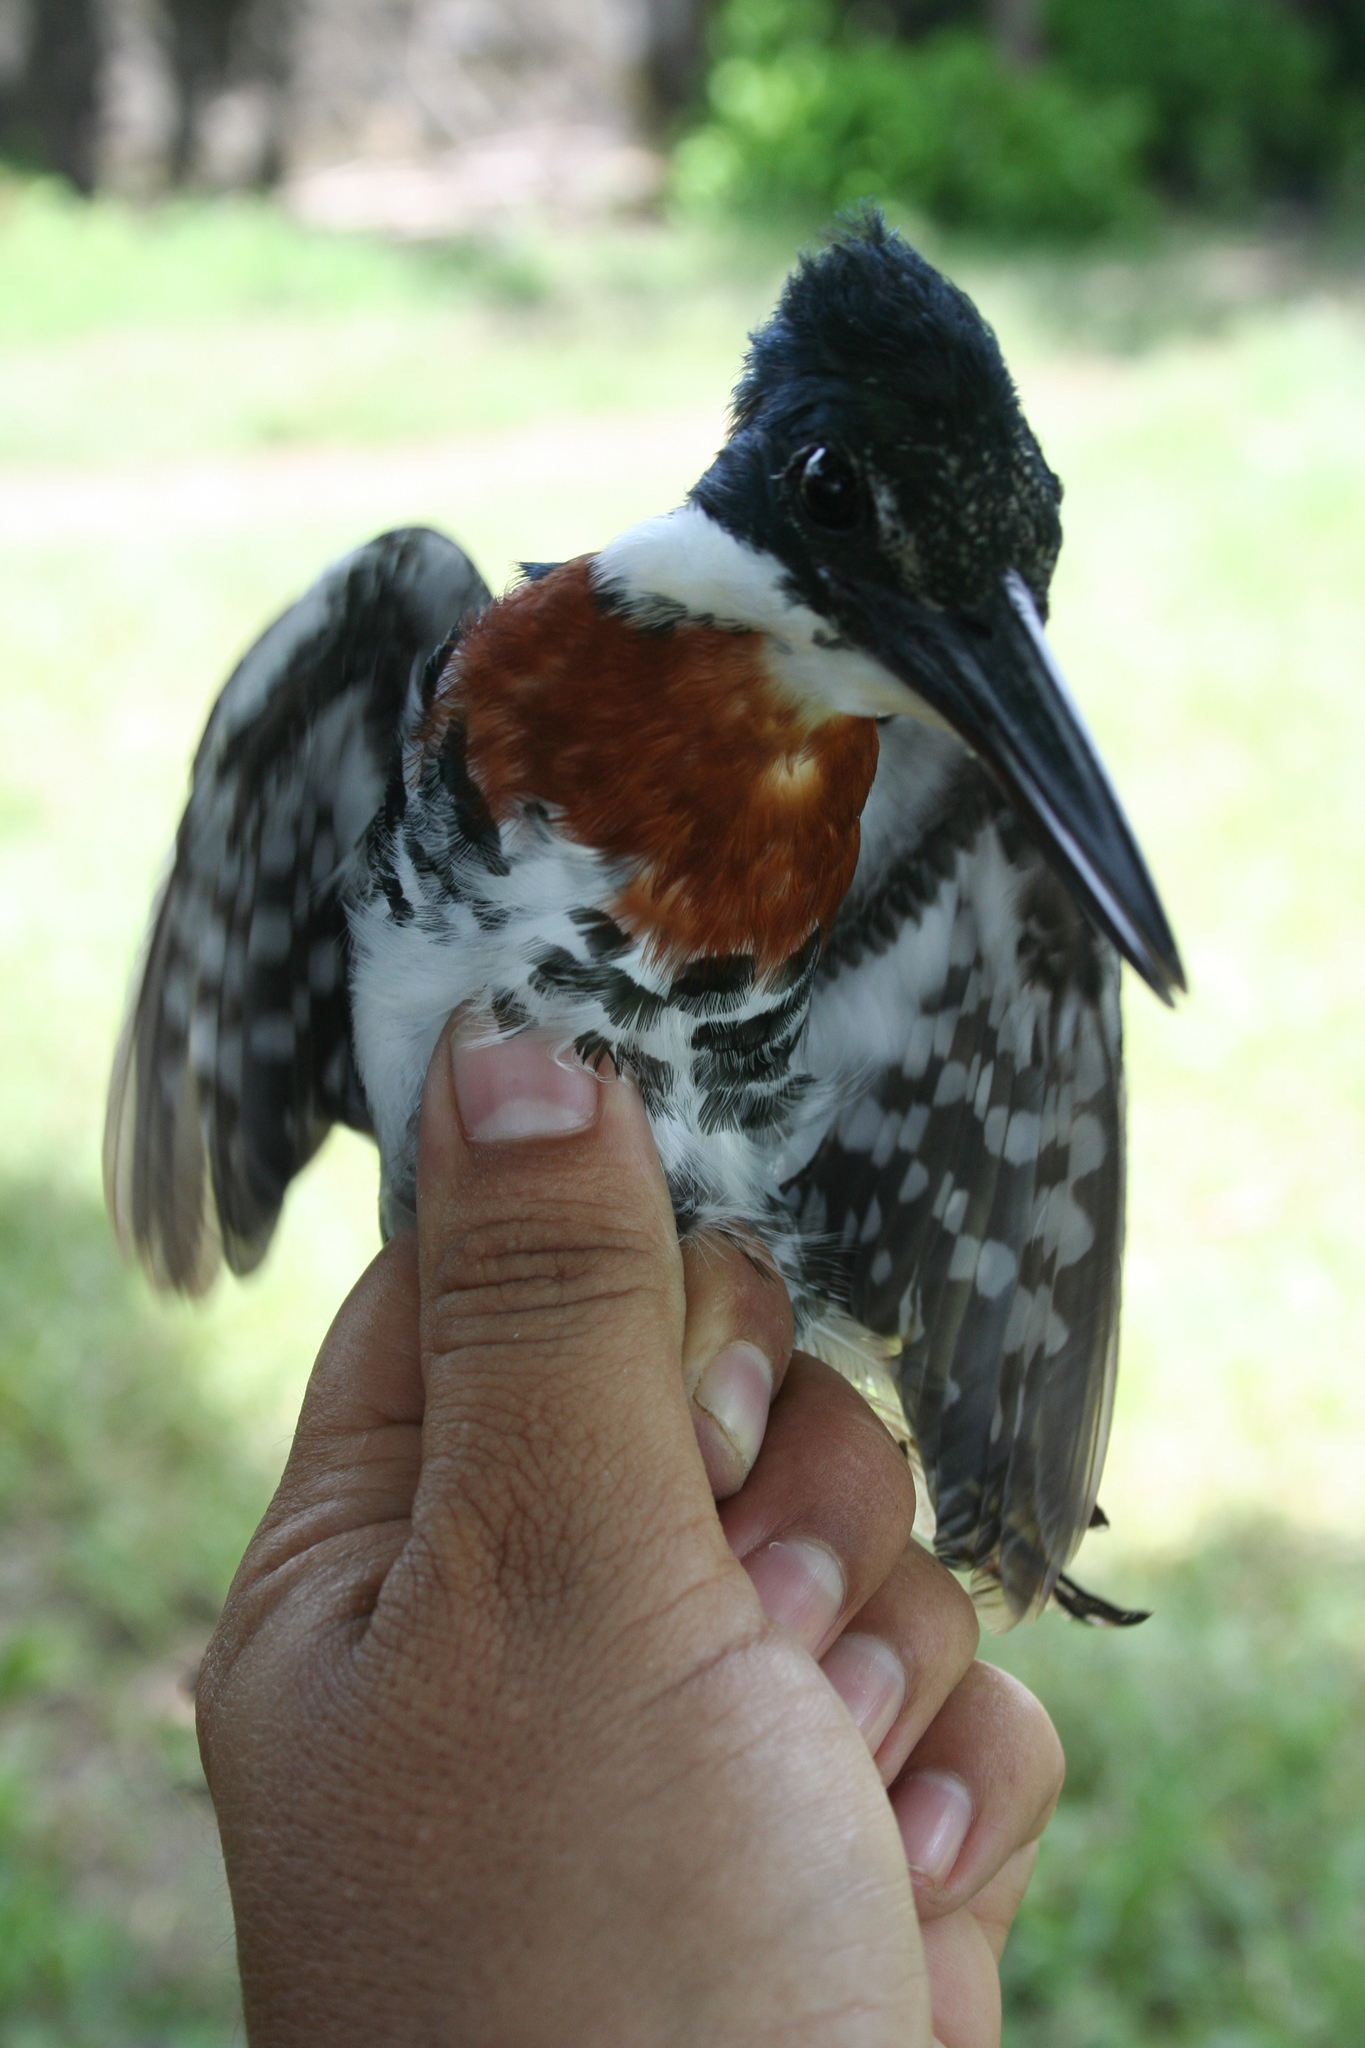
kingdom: Animalia
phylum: Chordata
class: Aves
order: Coraciiformes
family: Alcedinidae
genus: Chloroceryle
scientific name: Chloroceryle americana
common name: Green kingfisher
